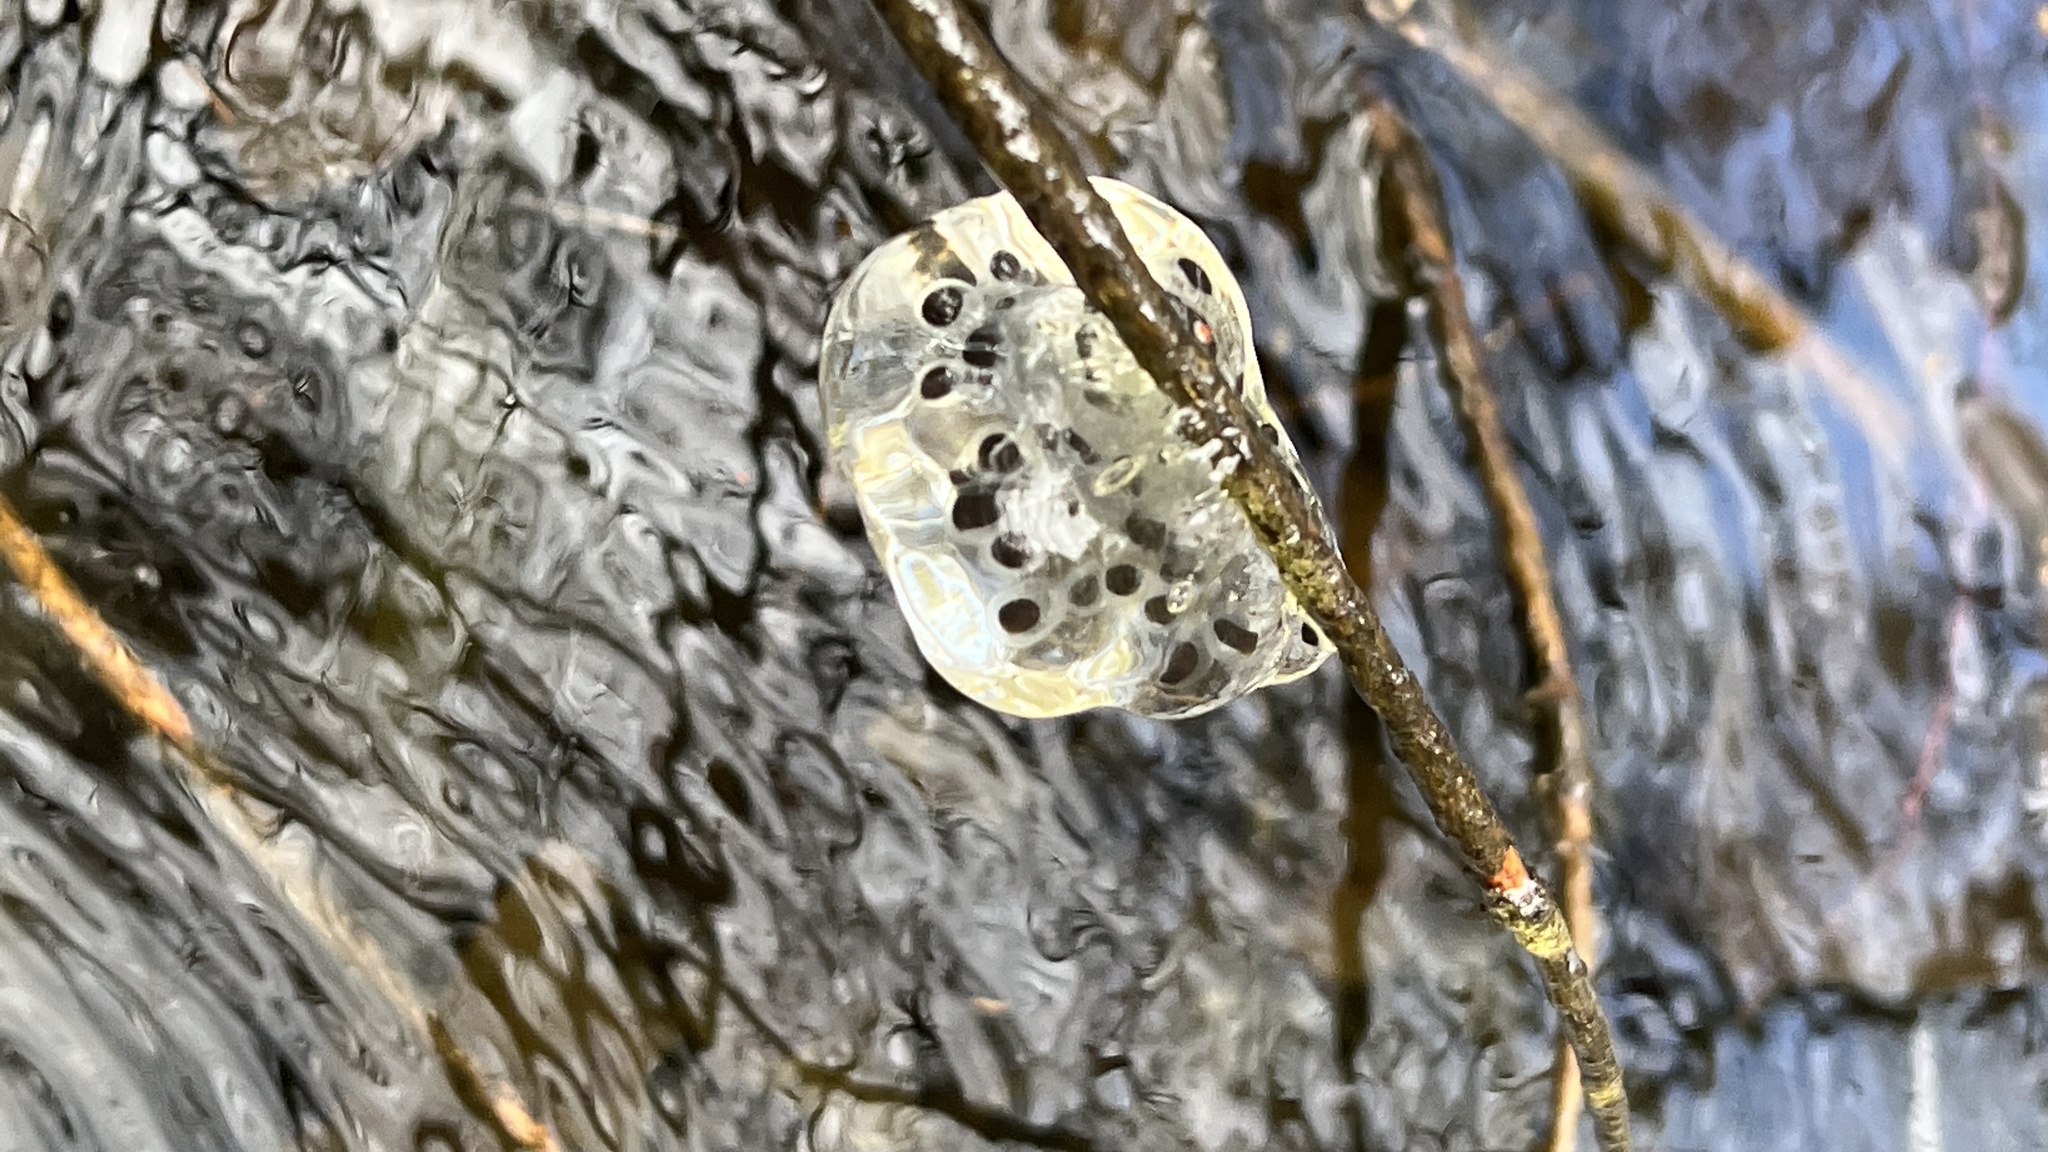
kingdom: Animalia
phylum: Chordata
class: Amphibia
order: Caudata
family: Ambystomatidae
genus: Ambystoma
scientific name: Ambystoma maculatum
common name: Spotted salamander
